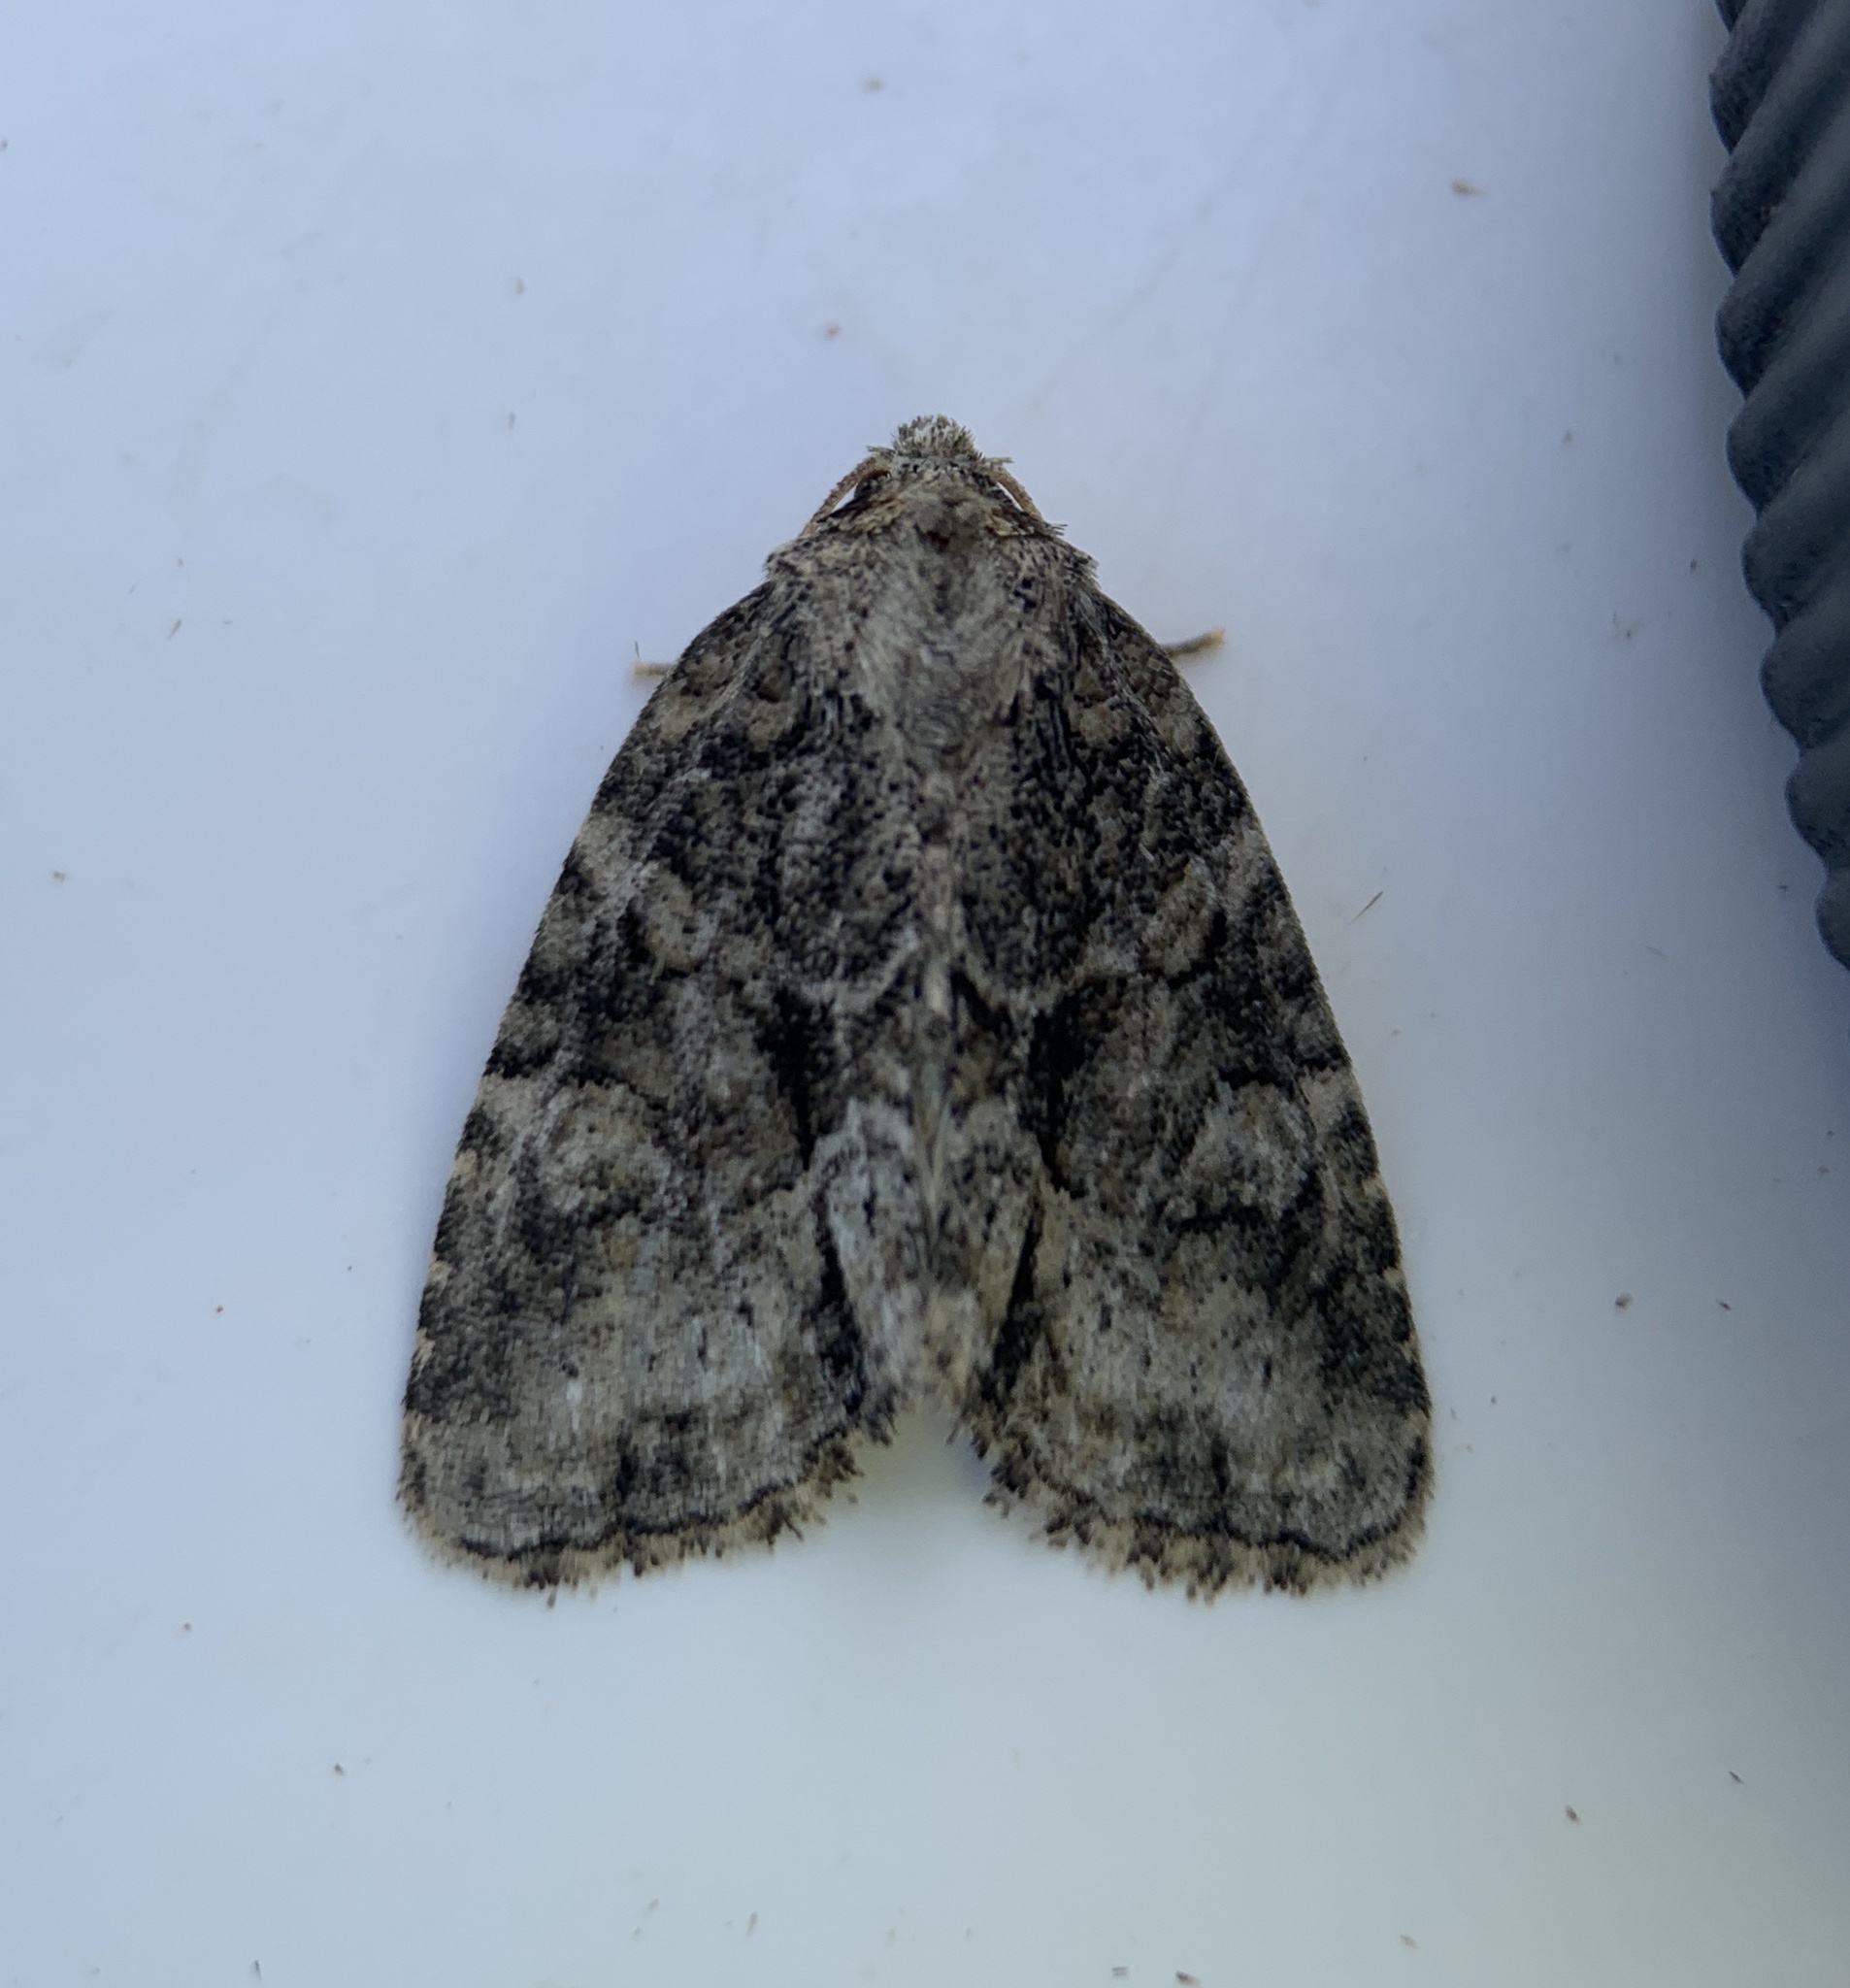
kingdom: Animalia
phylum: Arthropoda
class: Insecta
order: Lepidoptera
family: Noctuidae
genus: Neoligia
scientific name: Neoligia exhausta
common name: Exhausted brocade
